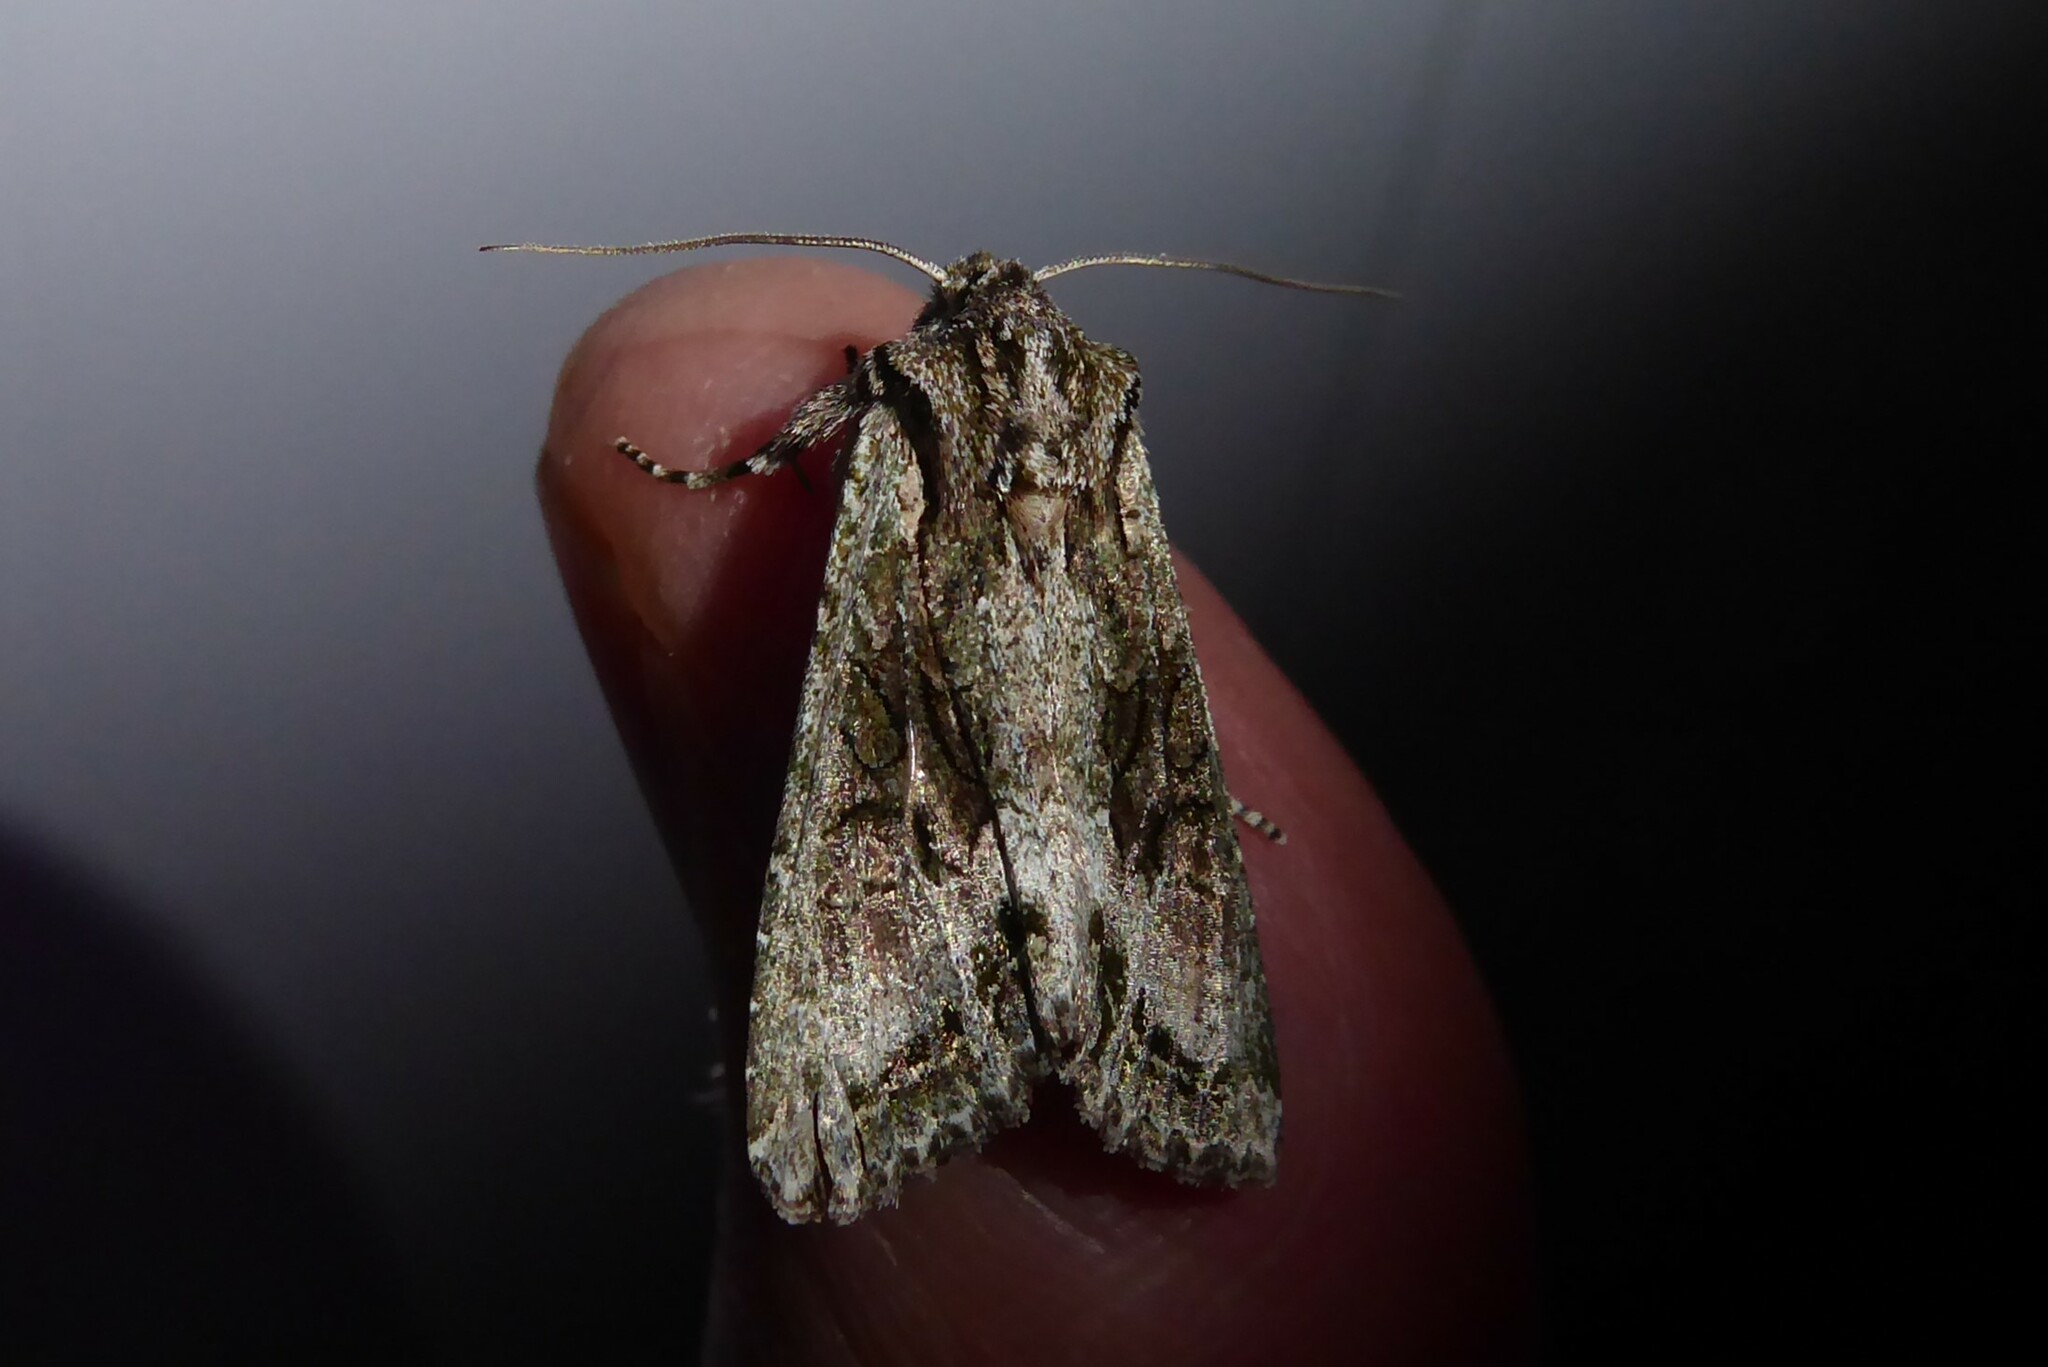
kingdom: Animalia
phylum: Arthropoda
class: Insecta
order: Lepidoptera
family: Noctuidae
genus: Ichneutica
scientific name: Ichneutica mutans
